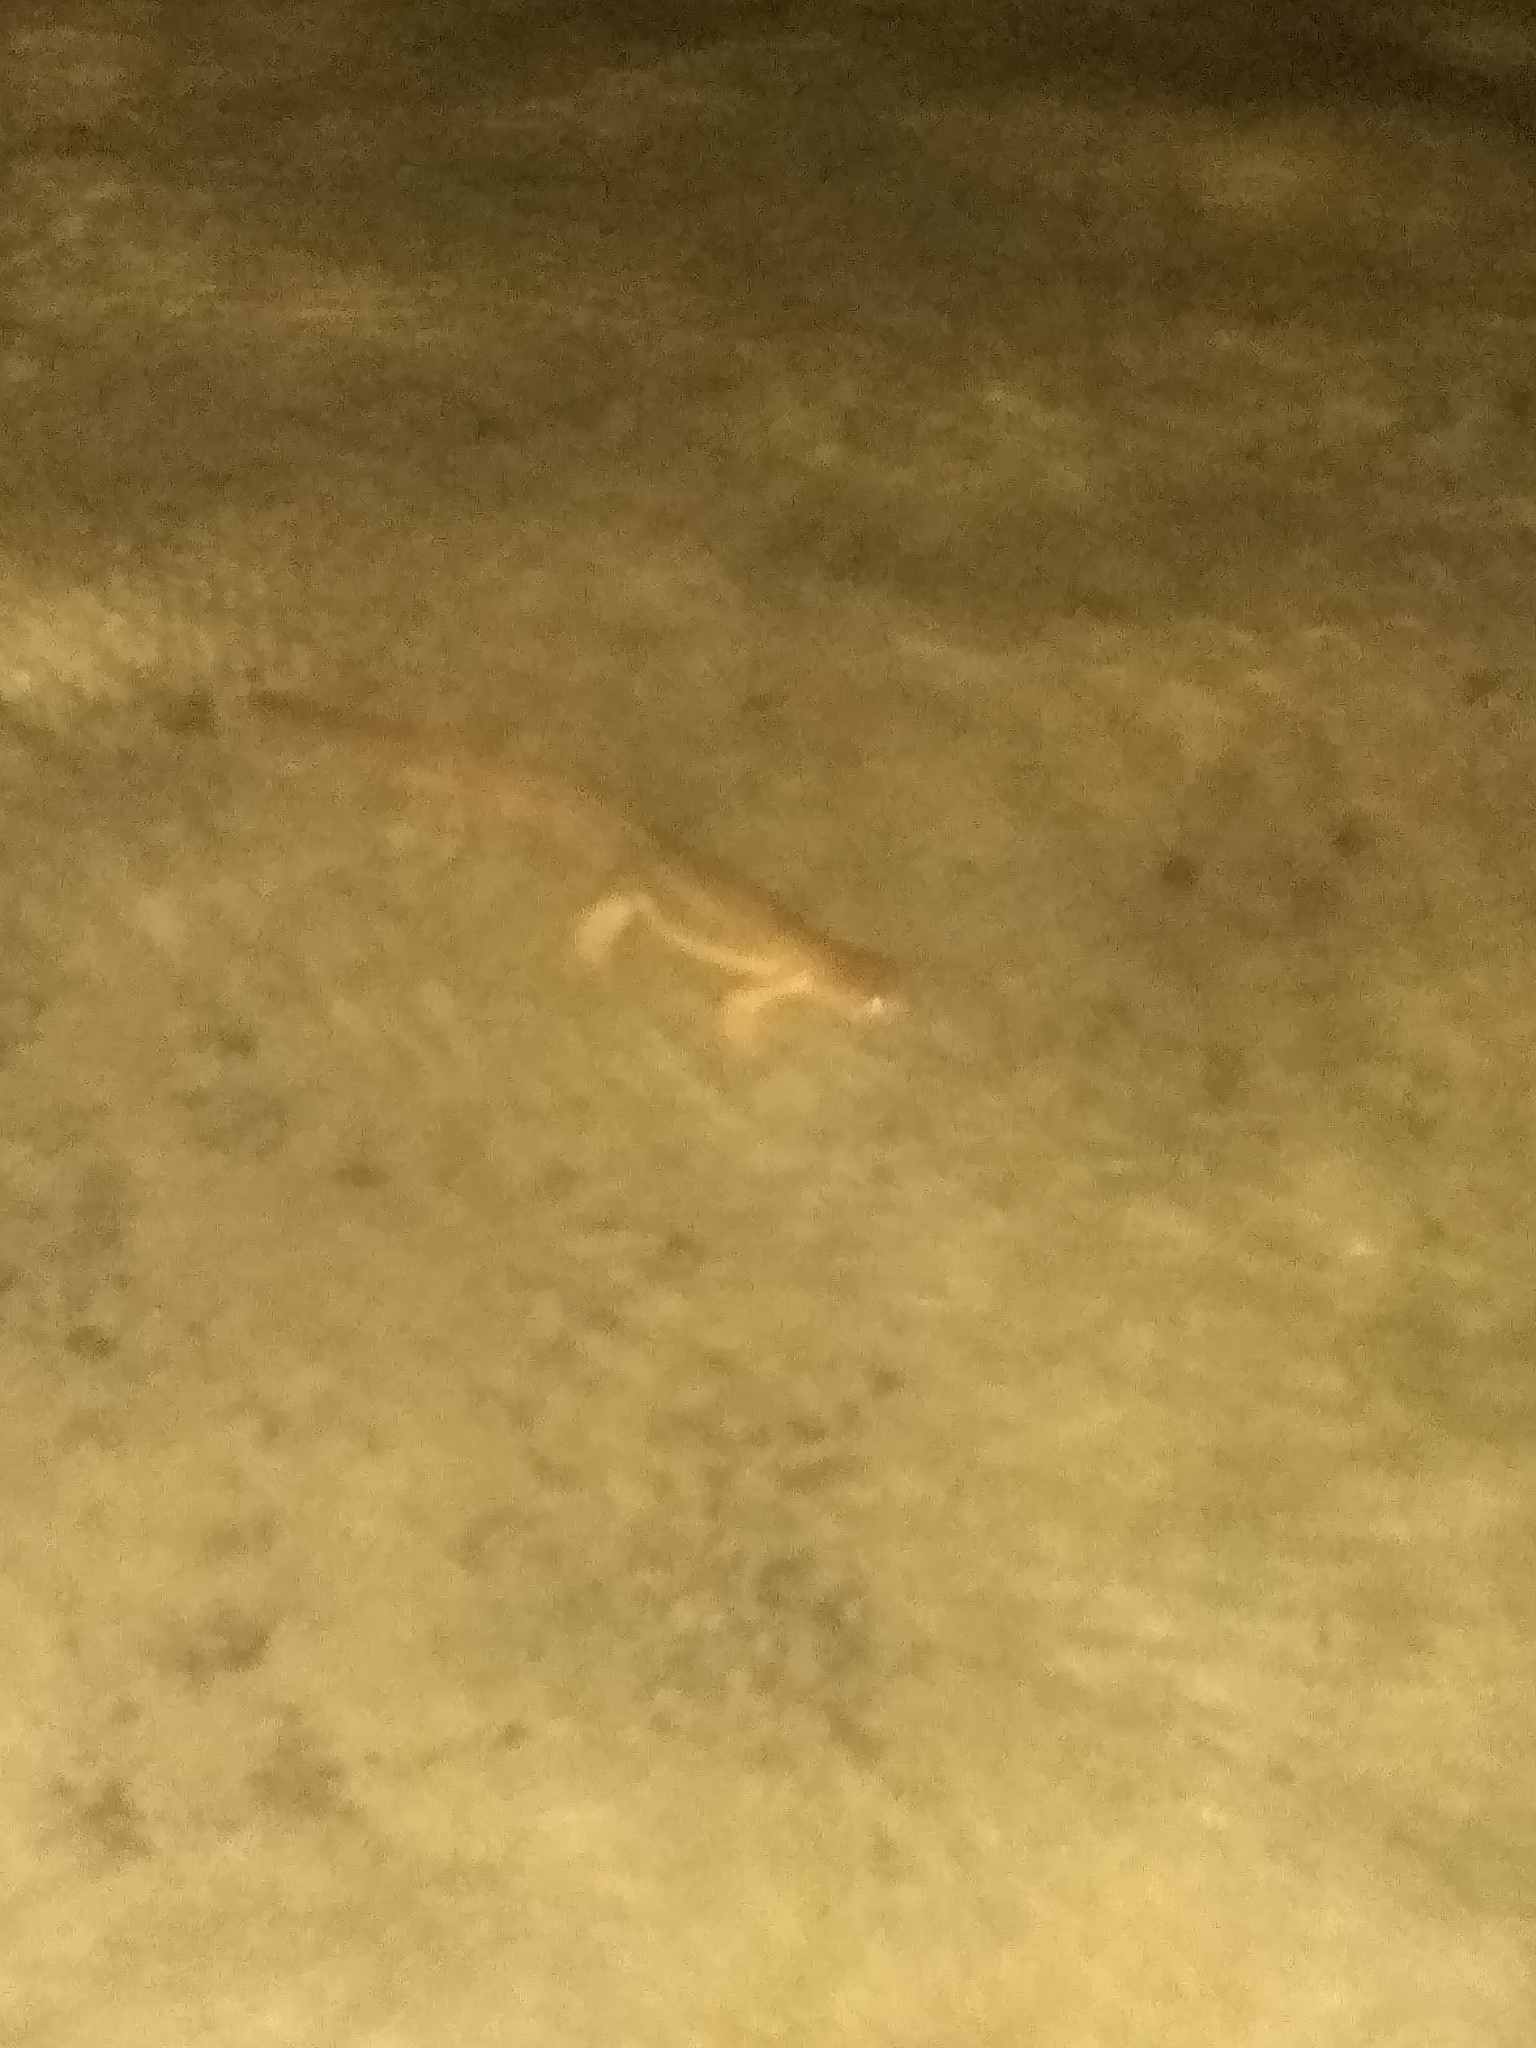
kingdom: Animalia
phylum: Chordata
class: Amphibia
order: Caudata
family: Salamandridae
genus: Taricha
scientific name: Taricha granulosa
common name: Roughskin newt
